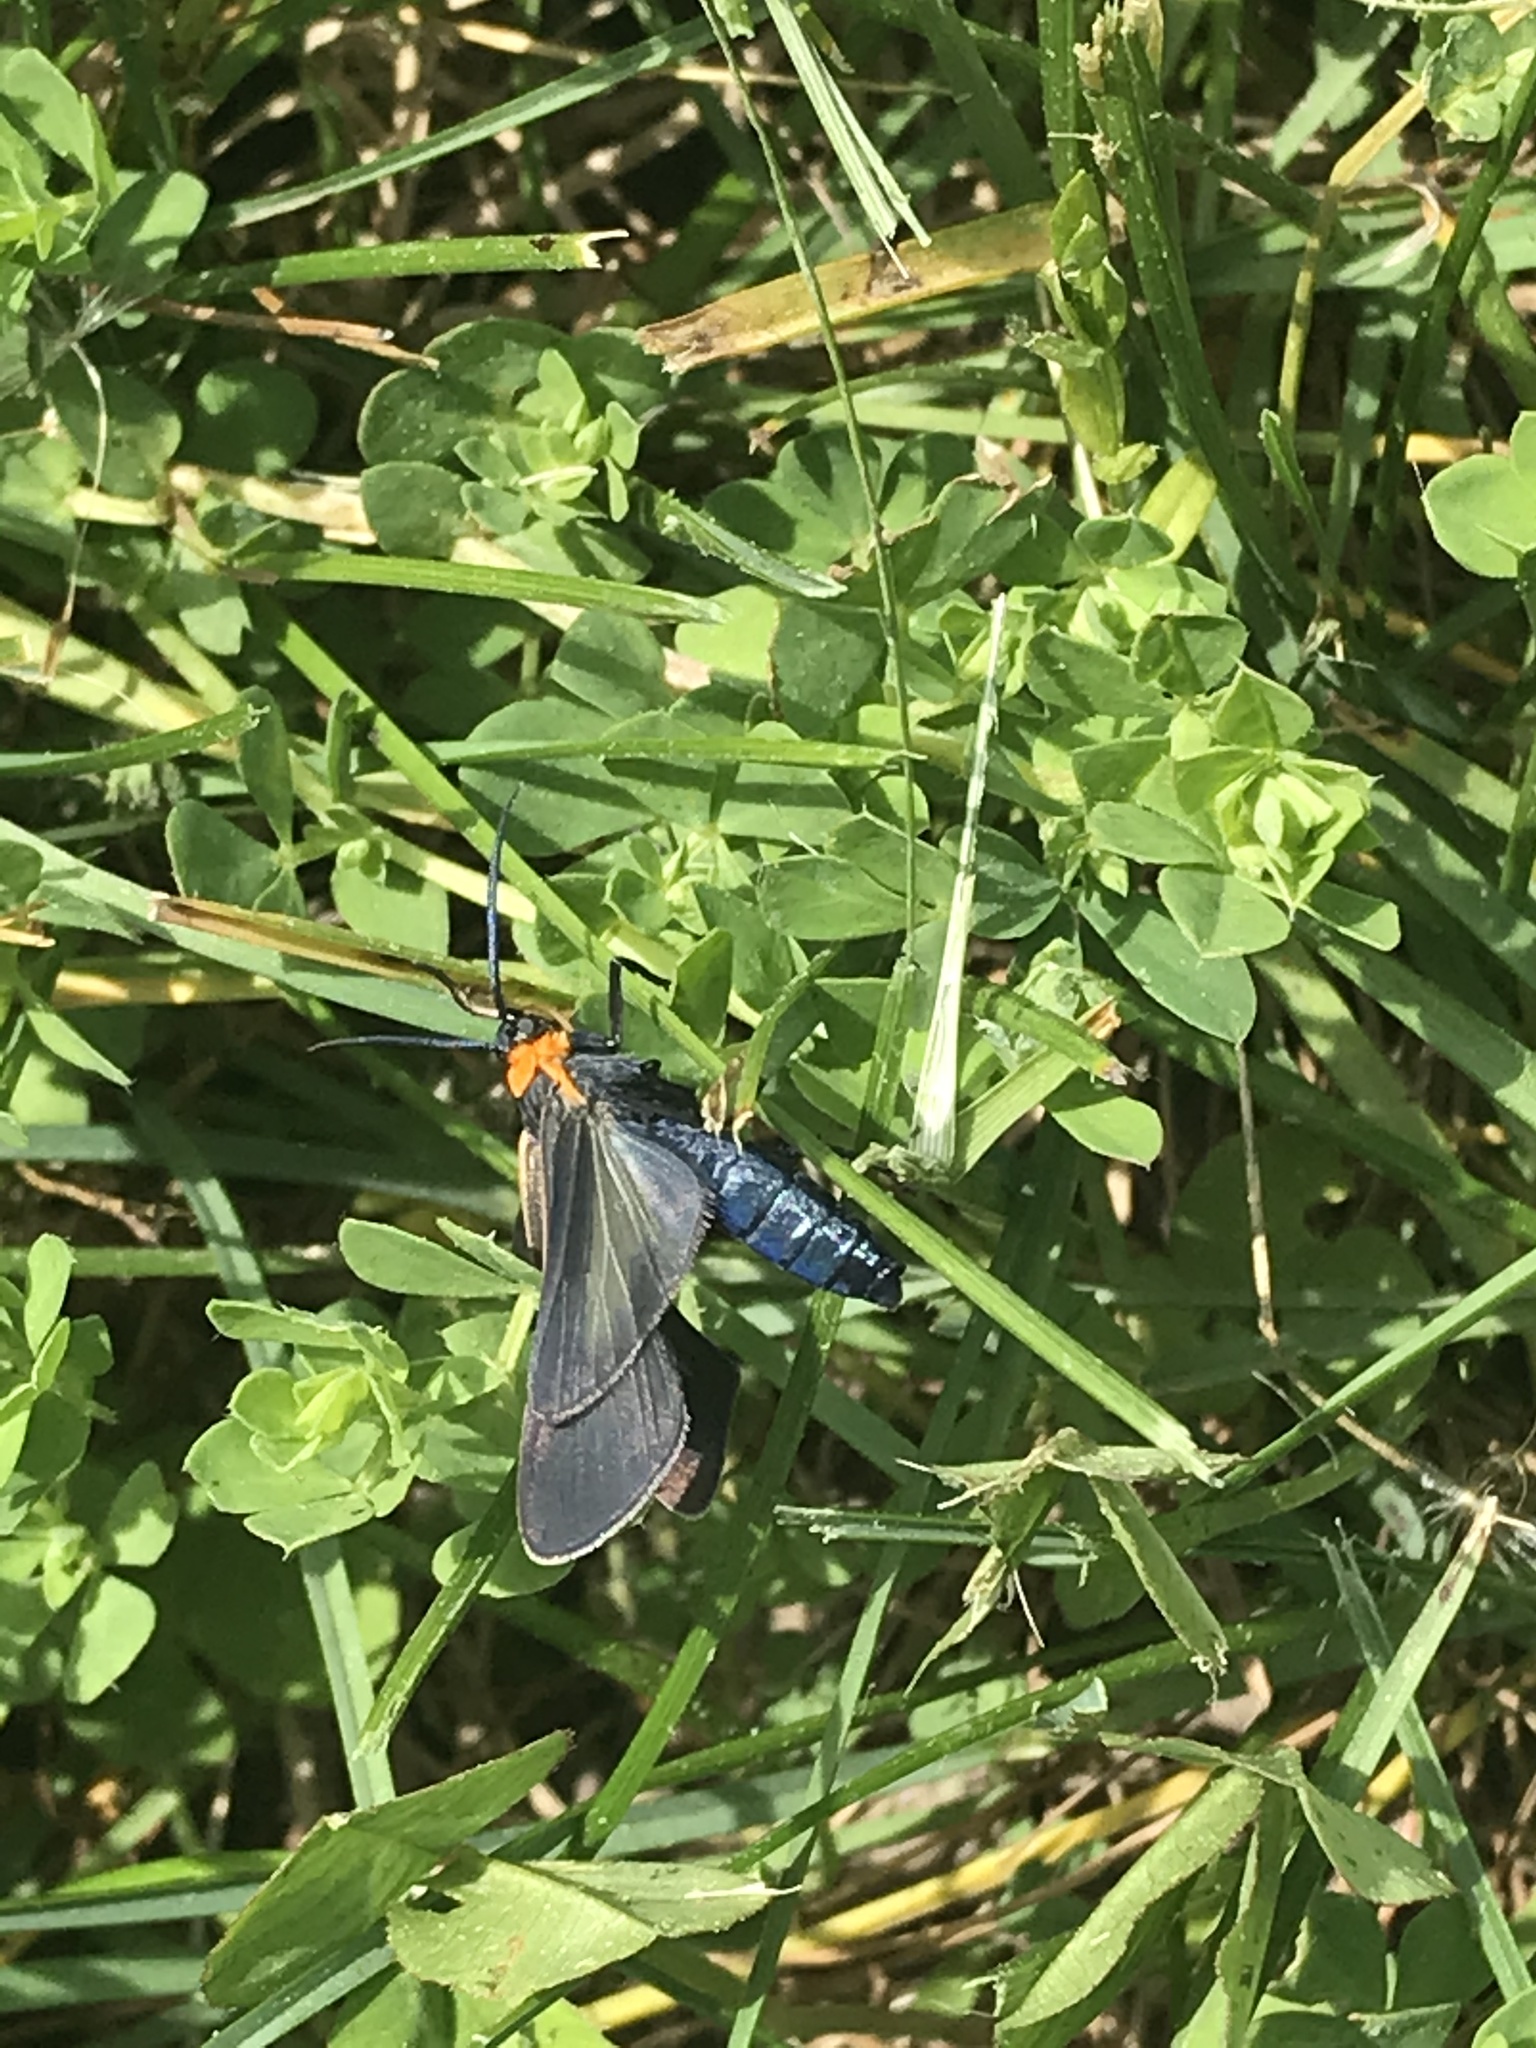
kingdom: Animalia
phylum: Arthropoda
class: Insecta
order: Lepidoptera
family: Erebidae
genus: Cisseps
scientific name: Cisseps fulvicollis
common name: Yellow-collared scape moth
